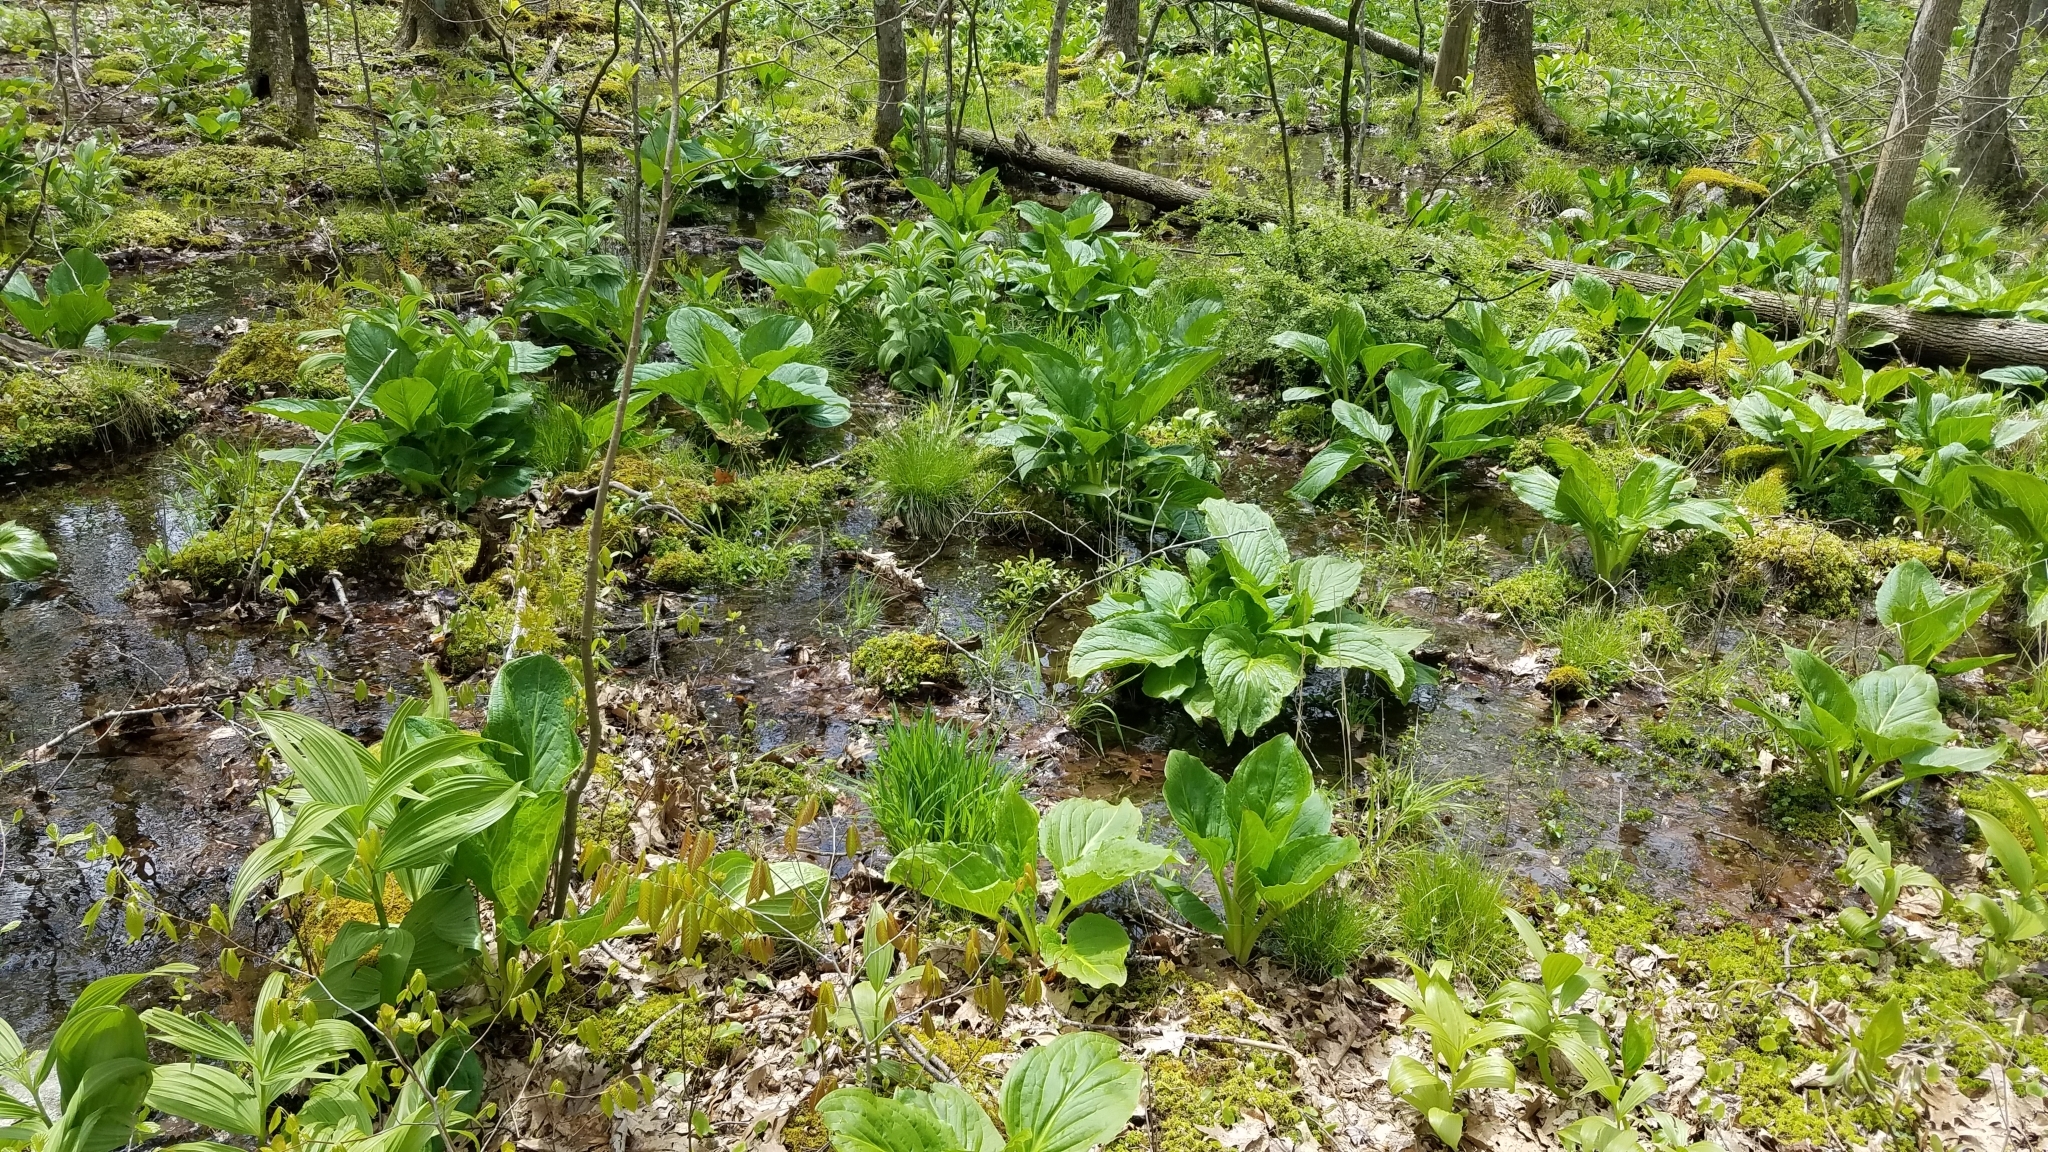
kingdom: Plantae
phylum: Tracheophyta
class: Liliopsida
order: Liliales
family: Melanthiaceae
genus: Veratrum
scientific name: Veratrum viride
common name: American false hellebore
